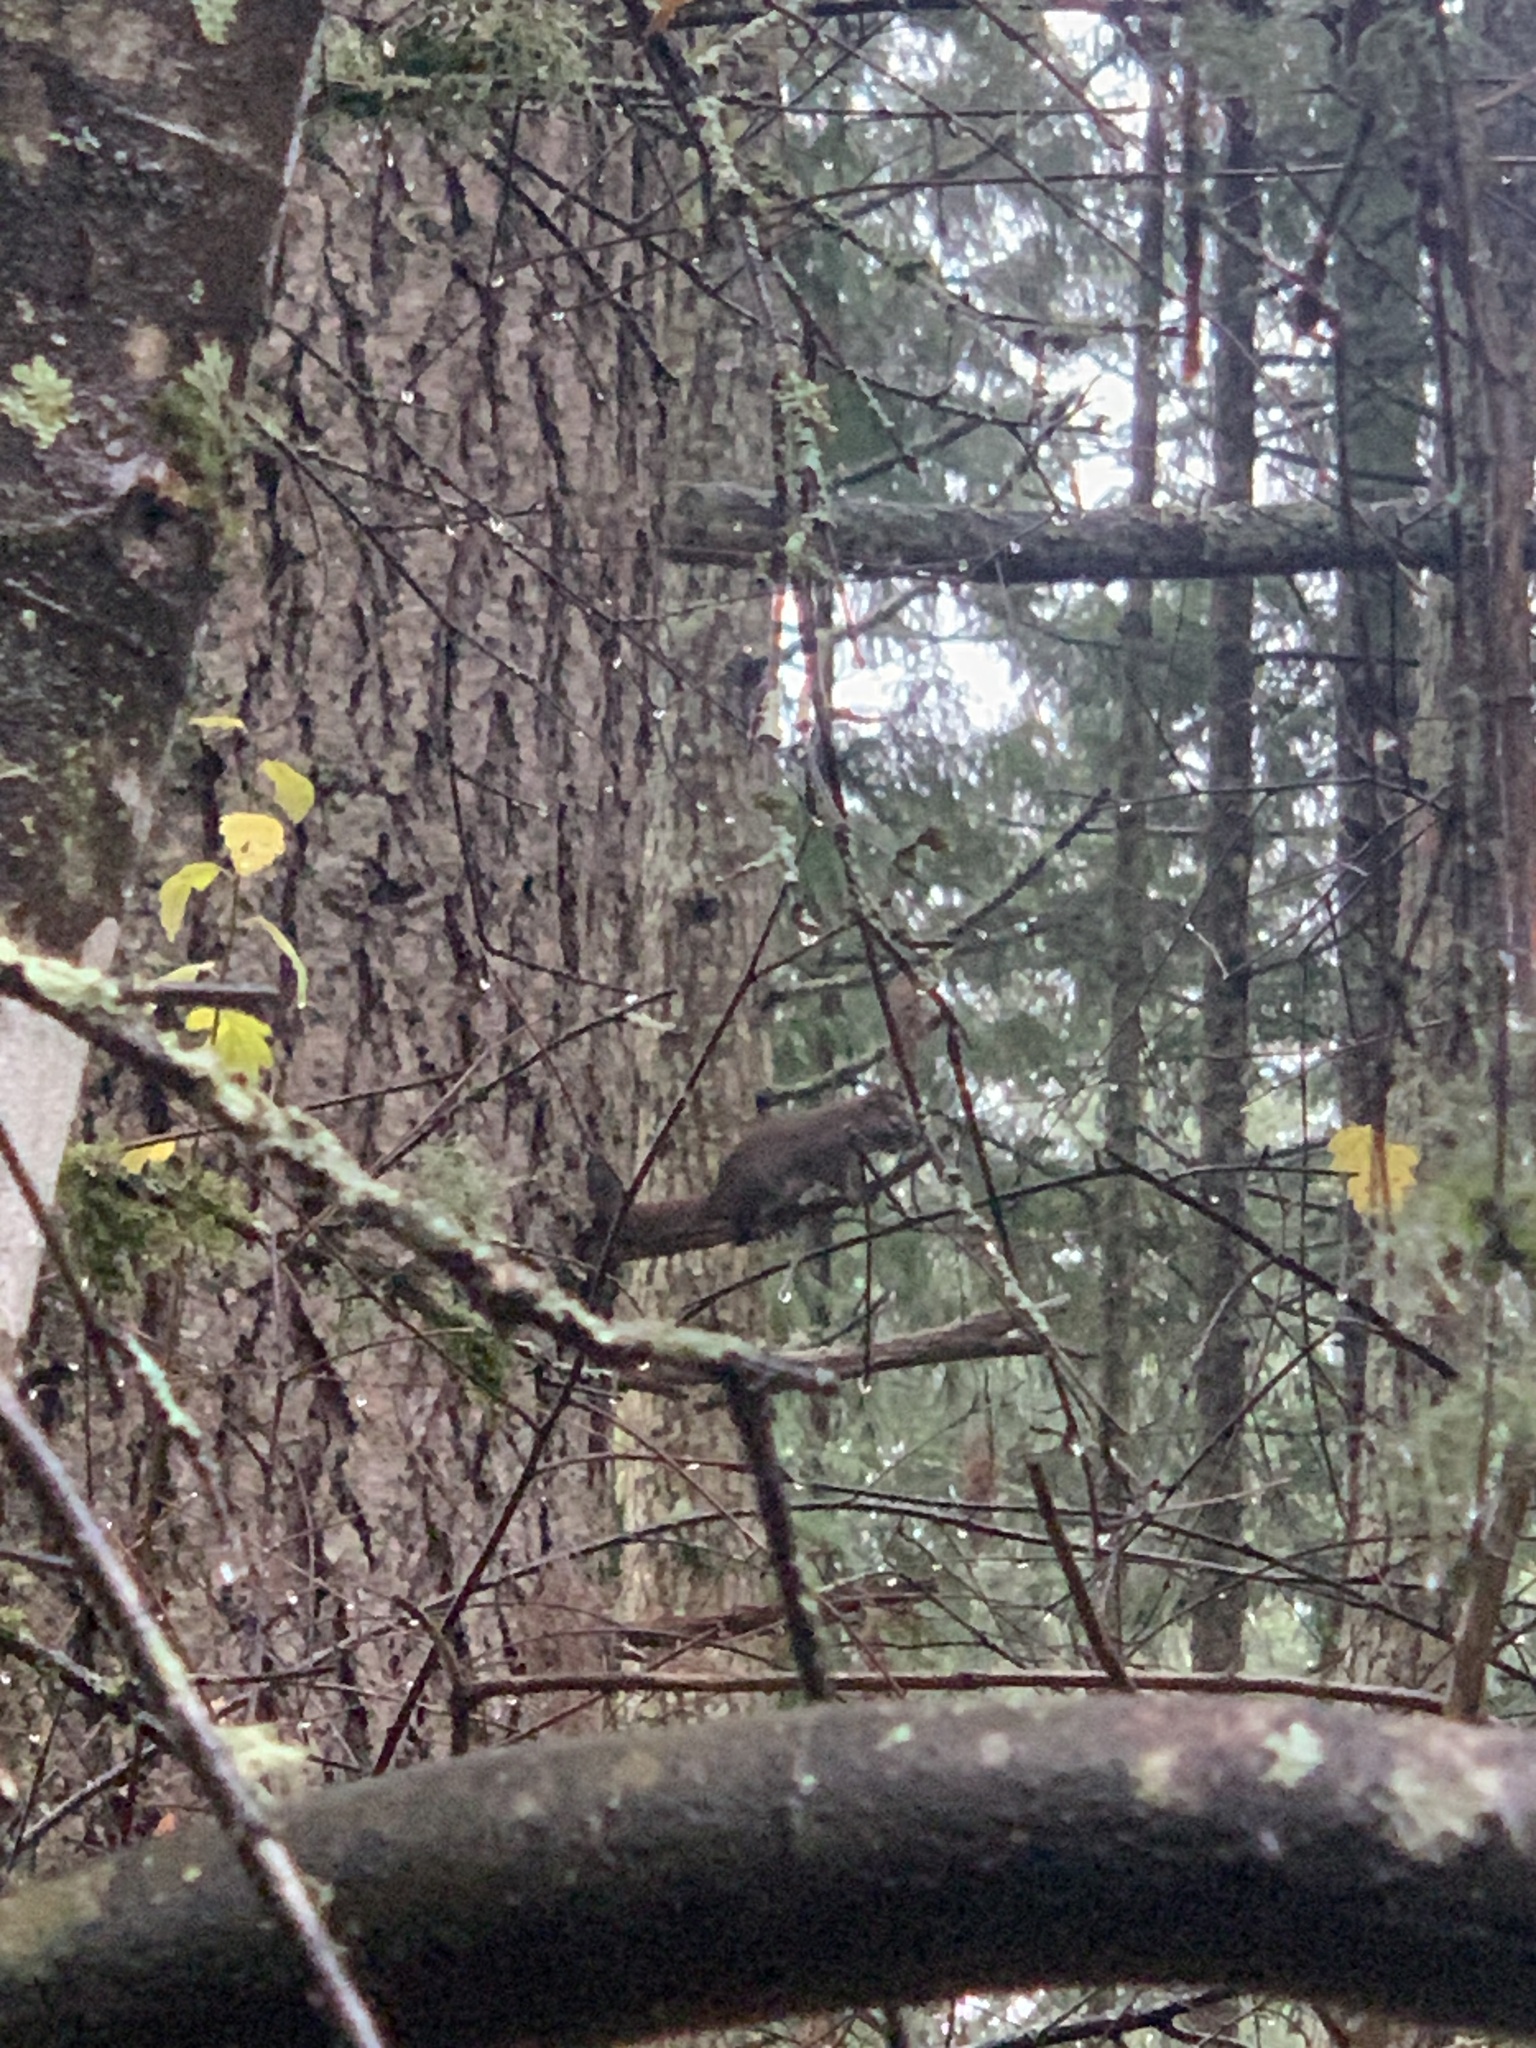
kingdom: Animalia
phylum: Chordata
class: Mammalia
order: Rodentia
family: Sciuridae
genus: Tamiasciurus
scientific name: Tamiasciurus hudsonicus
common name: Red squirrel
